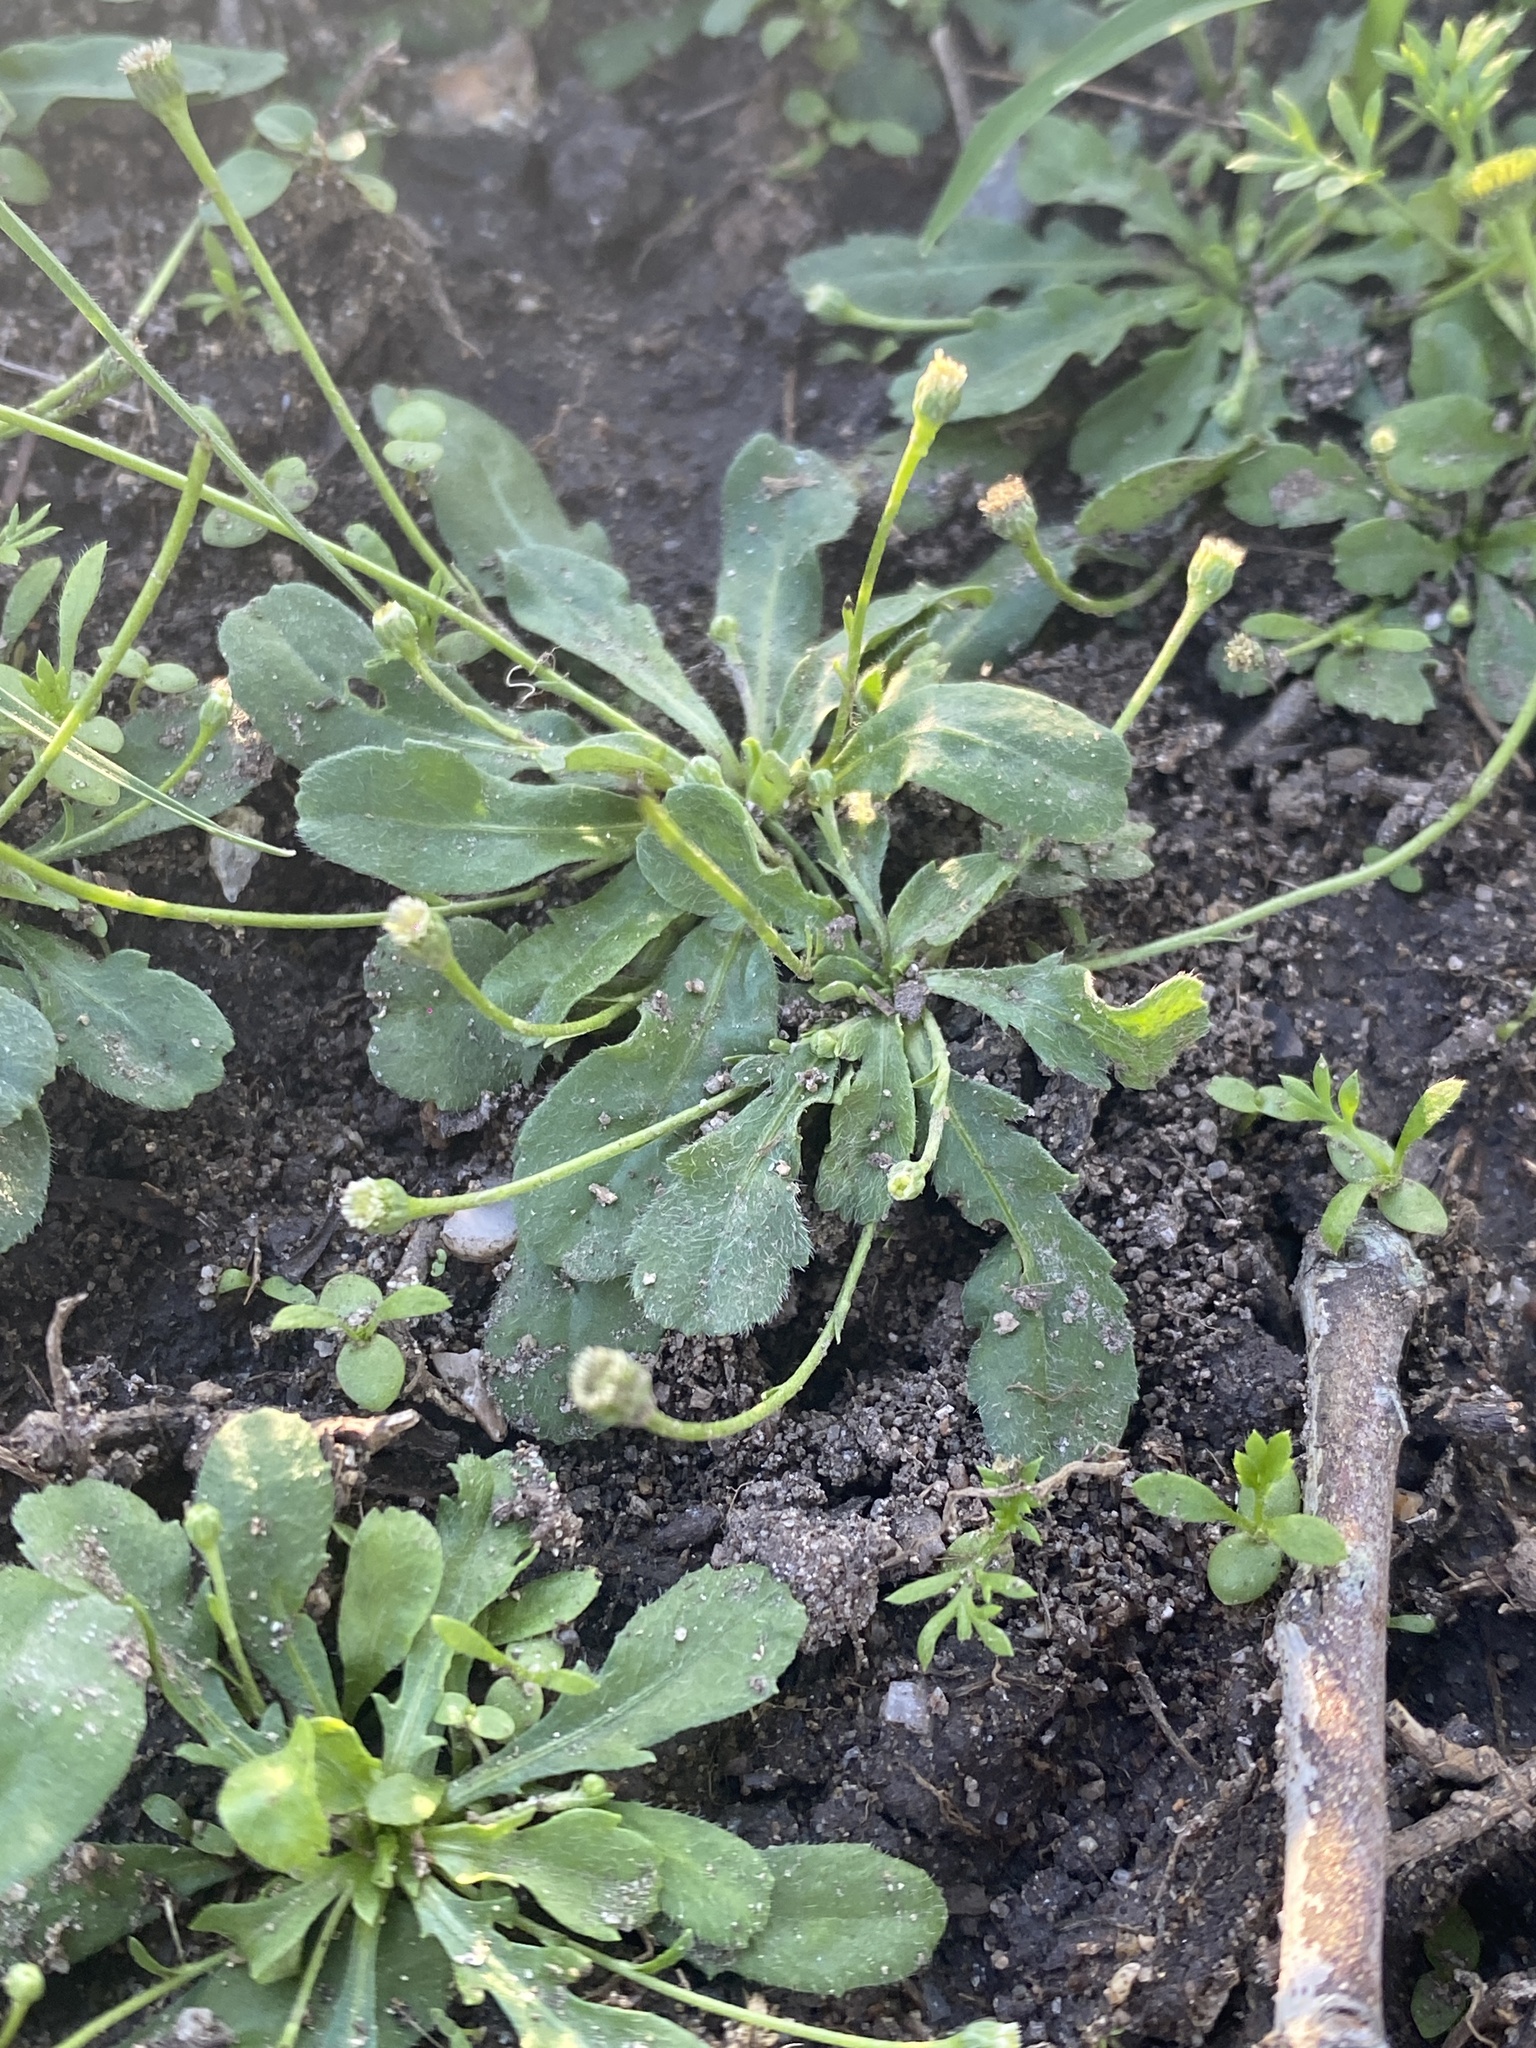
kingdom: Plantae
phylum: Tracheophyta
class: Magnoliopsida
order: Asterales
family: Asteraceae
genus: Solenogyne
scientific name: Solenogyne bellioides
